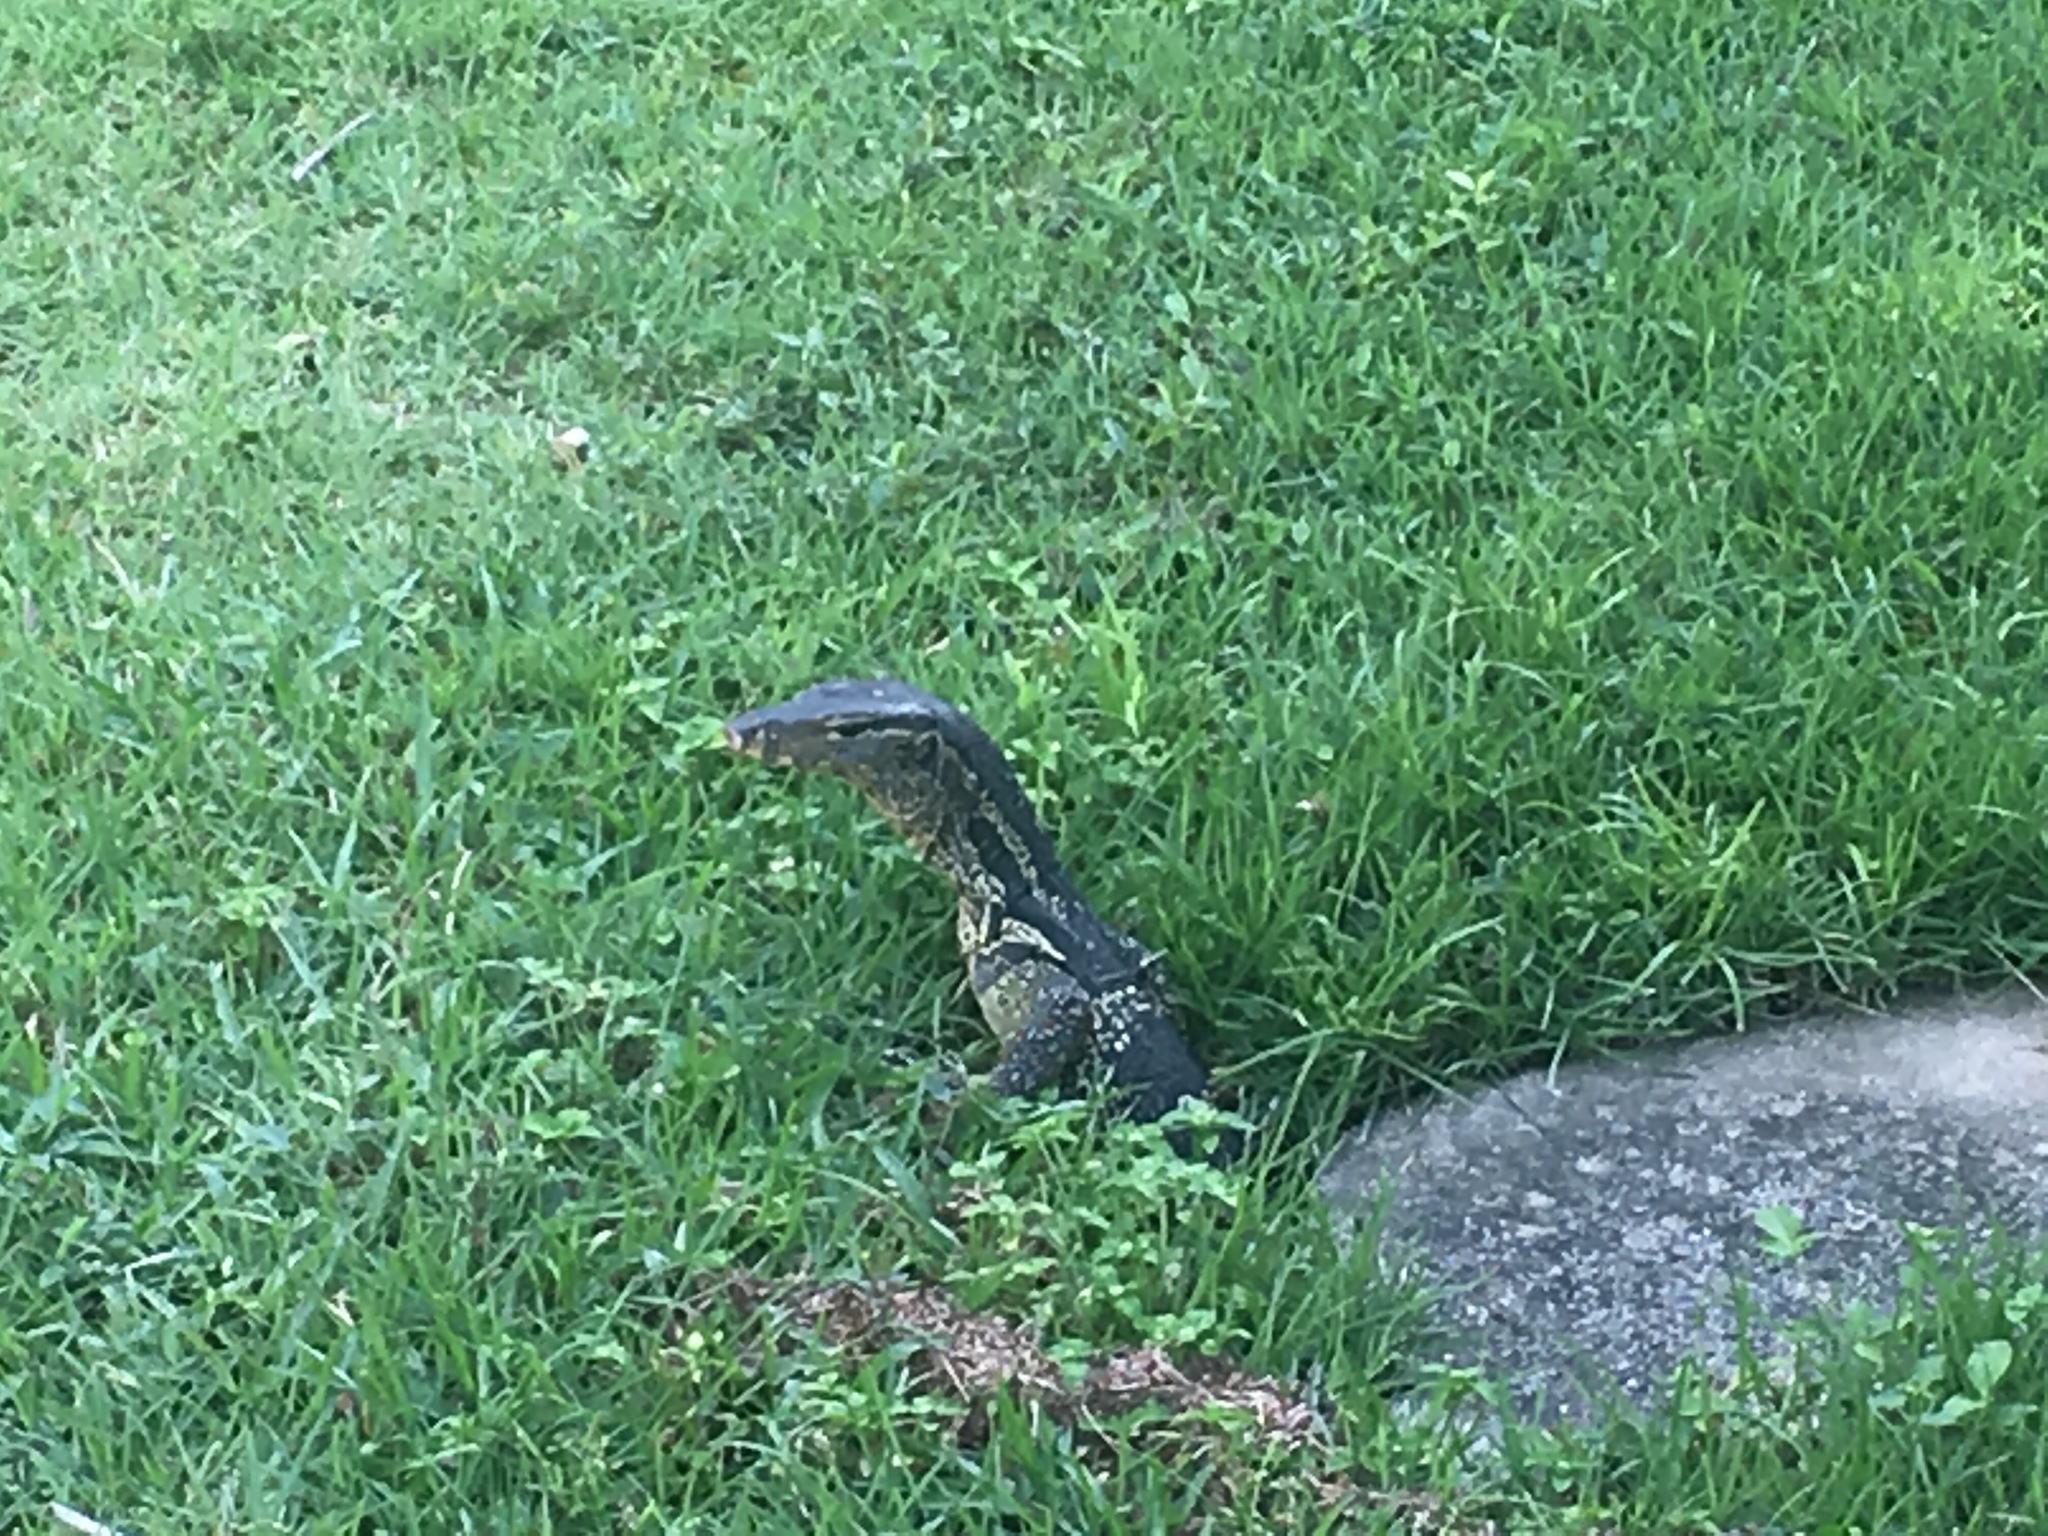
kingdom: Animalia
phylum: Chordata
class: Squamata
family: Varanidae
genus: Varanus
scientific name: Varanus salvator
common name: Common water monitor
